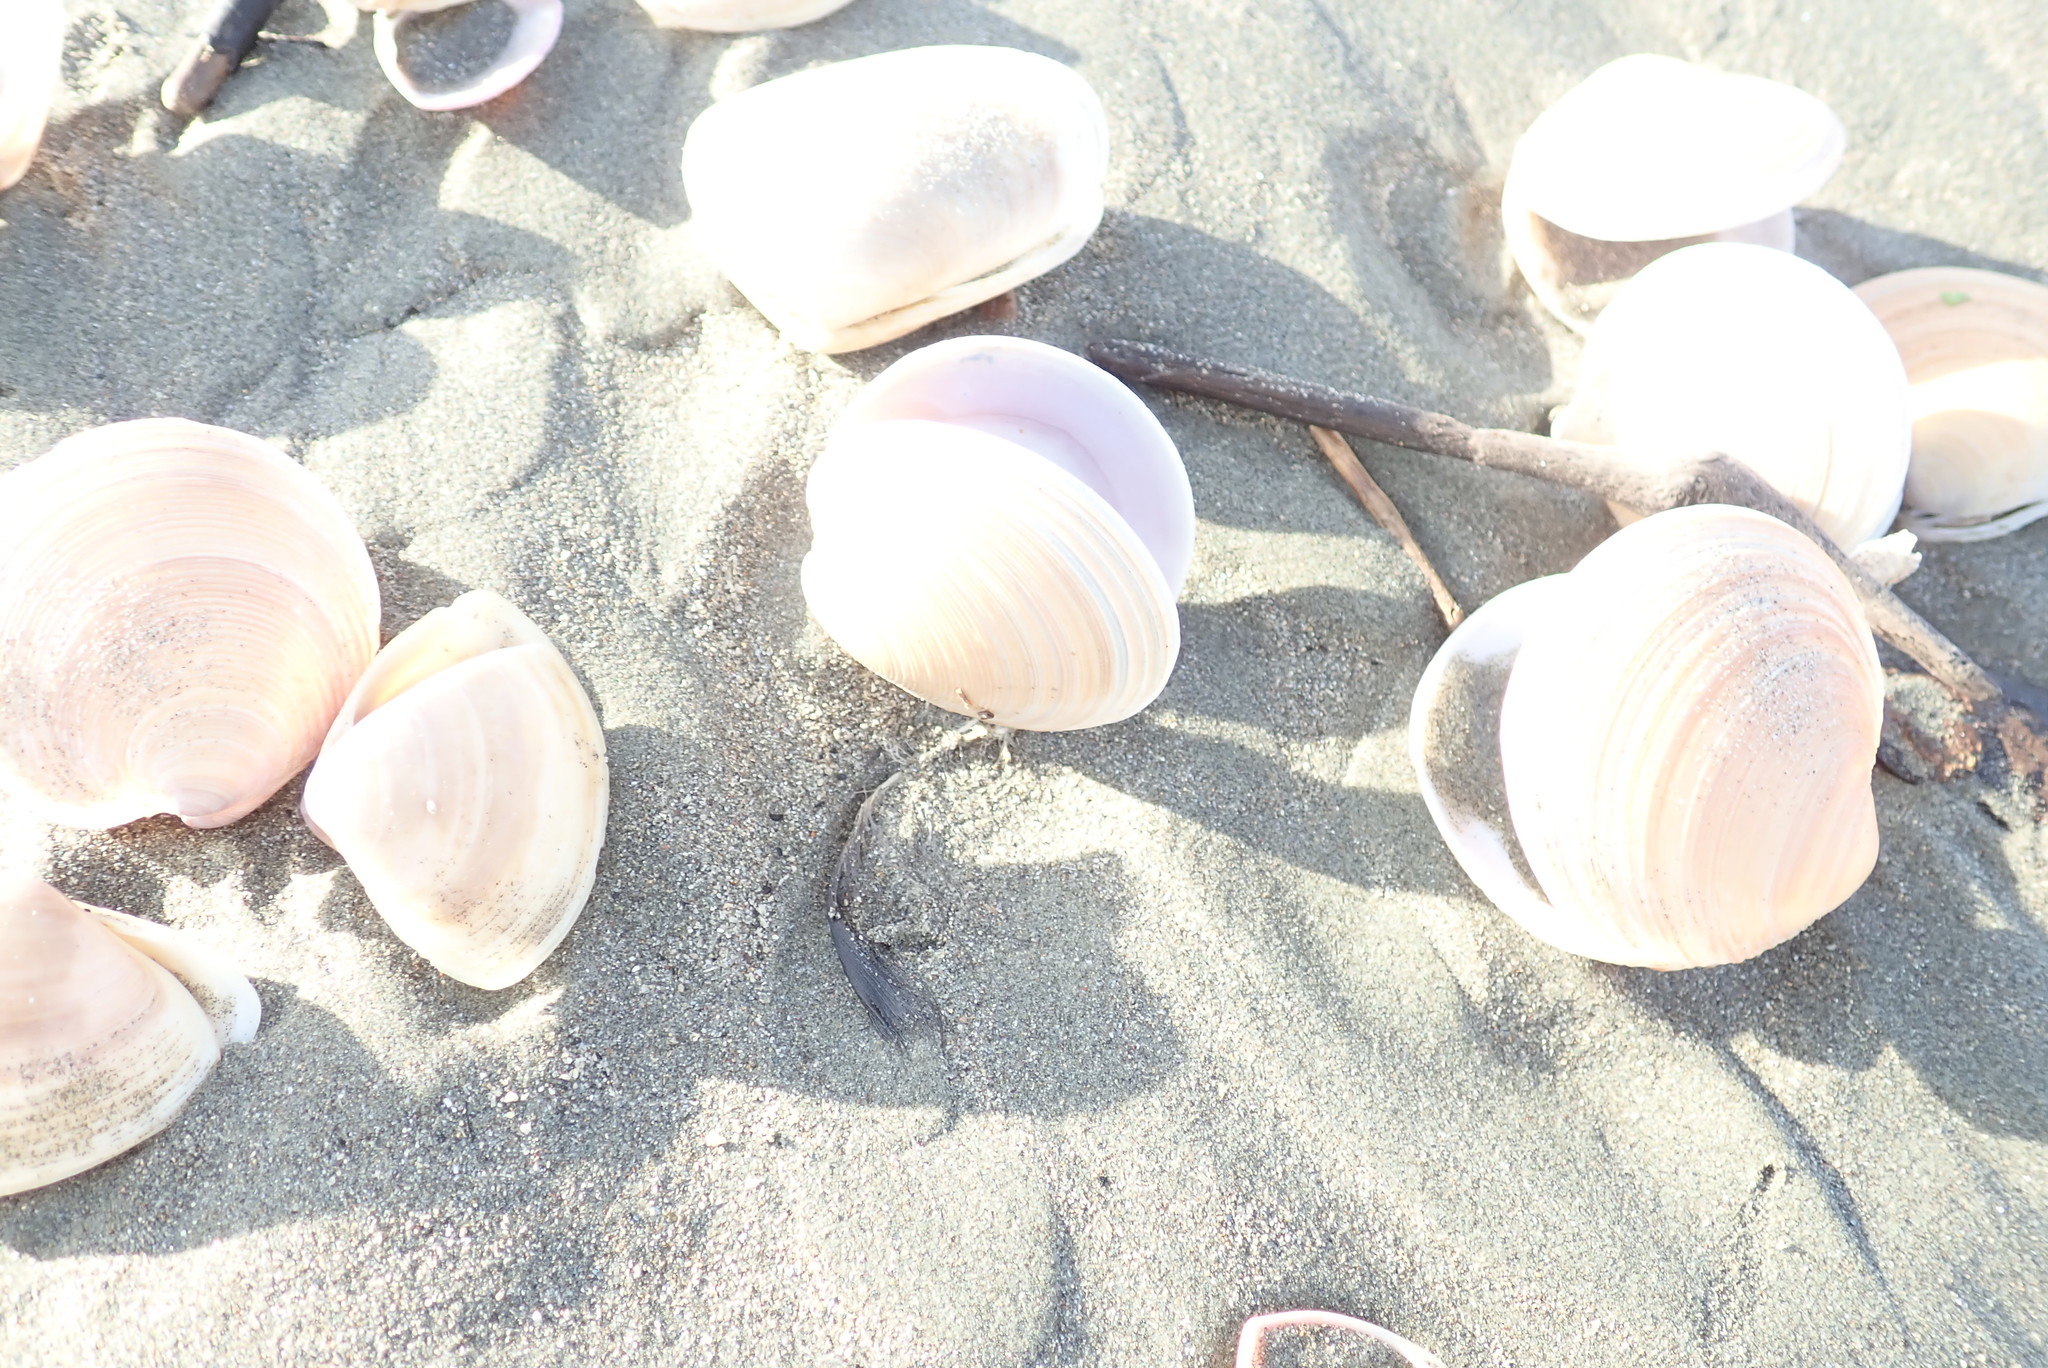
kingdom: Animalia
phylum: Mollusca
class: Bivalvia
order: Venerida
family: Veneridae
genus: Dosinia
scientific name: Dosinia anus
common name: Old-woman dosinia
